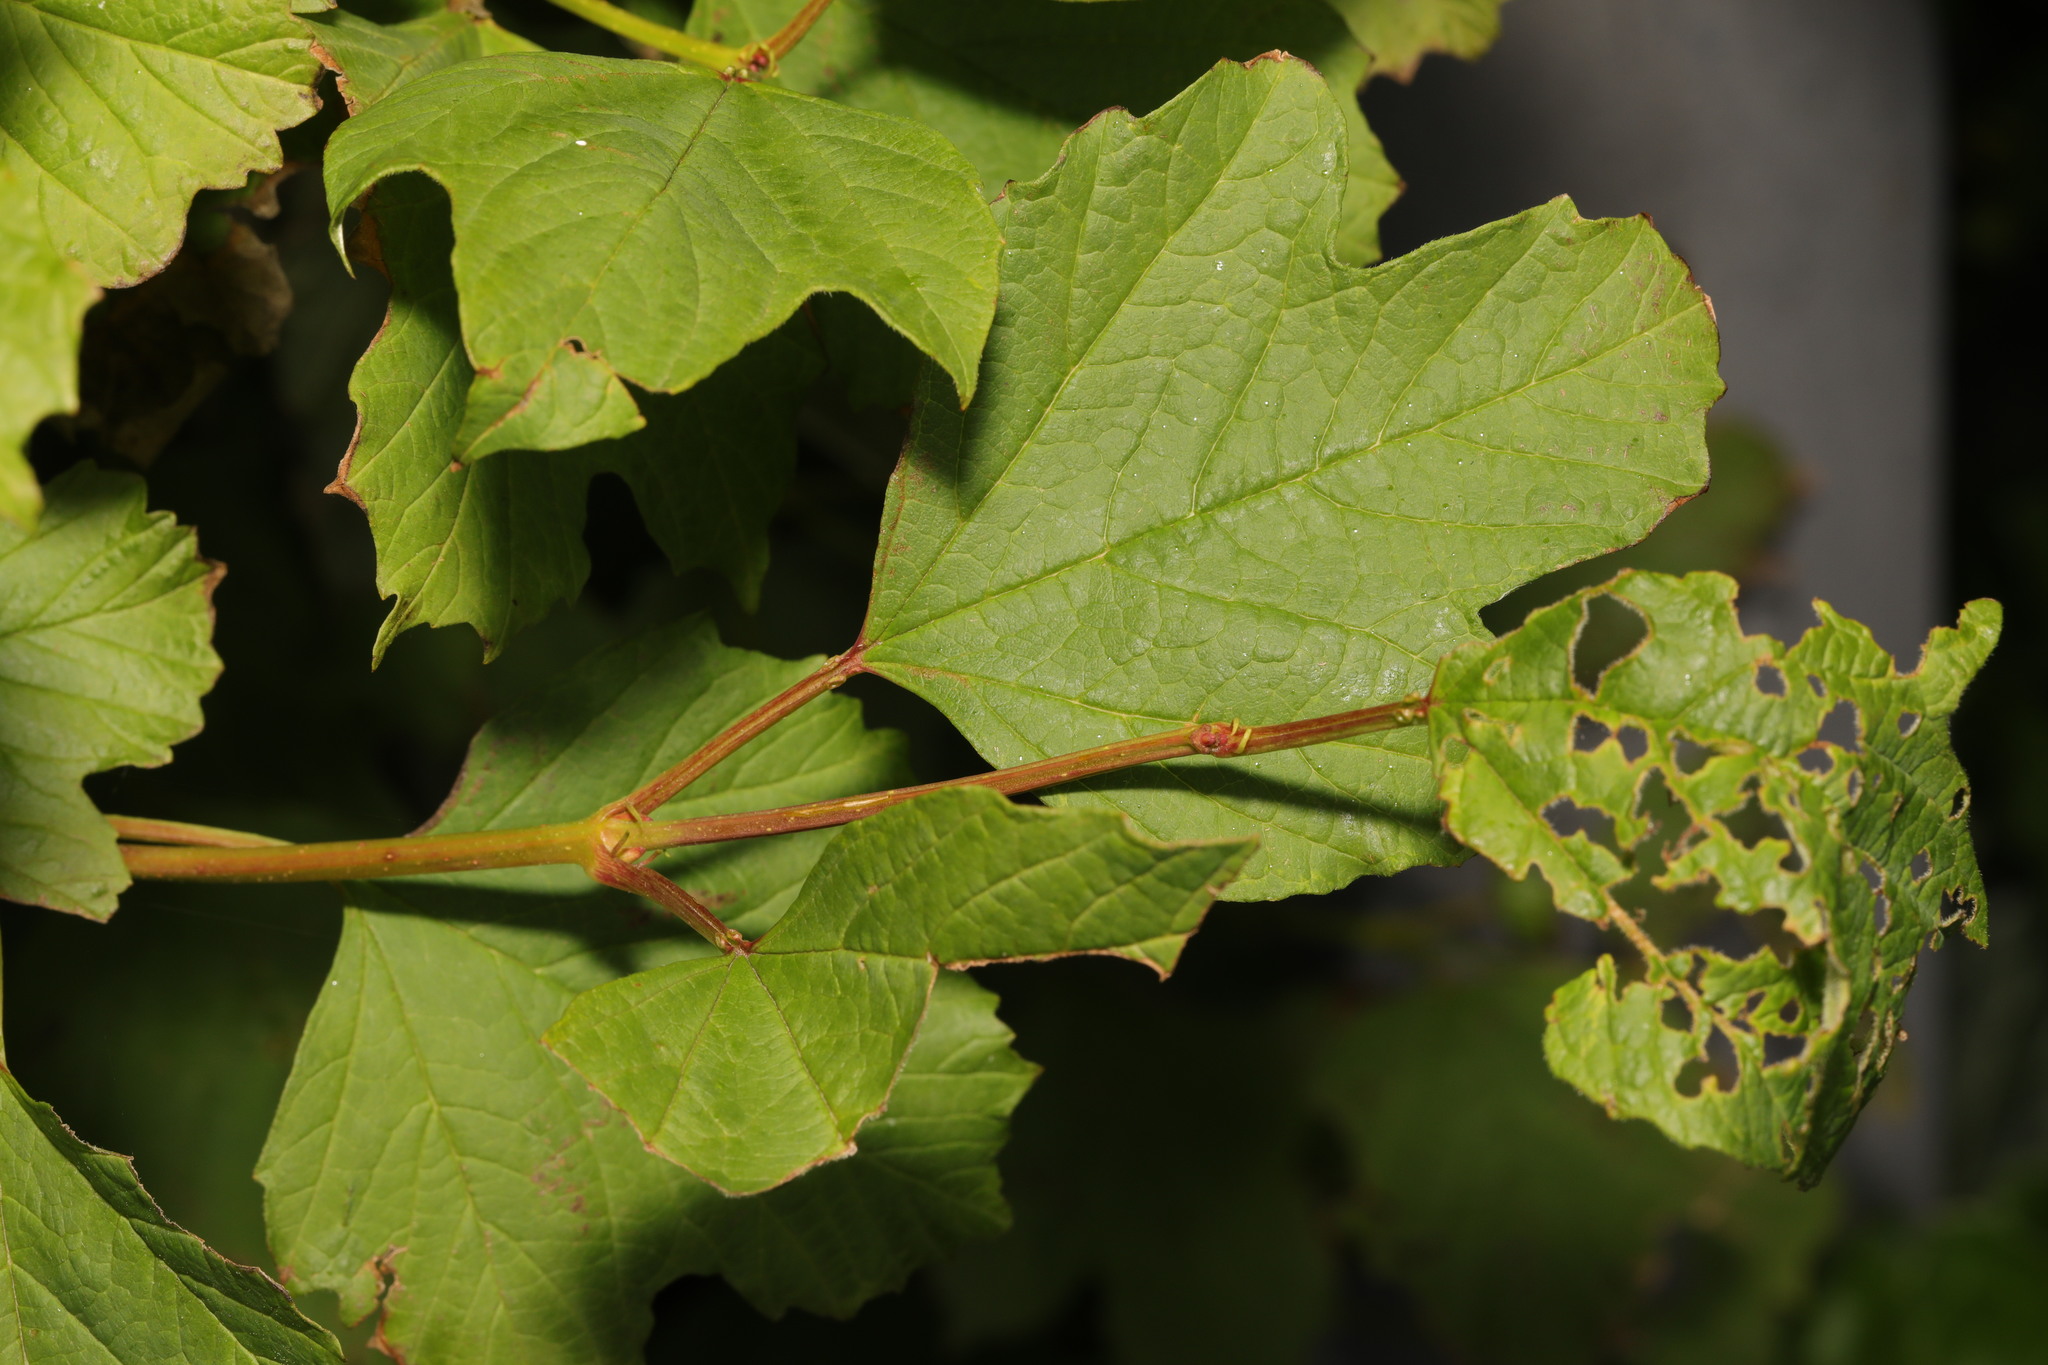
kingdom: Plantae
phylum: Tracheophyta
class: Magnoliopsida
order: Dipsacales
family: Viburnaceae
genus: Viburnum
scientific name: Viburnum opulus
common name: Guelder-rose
